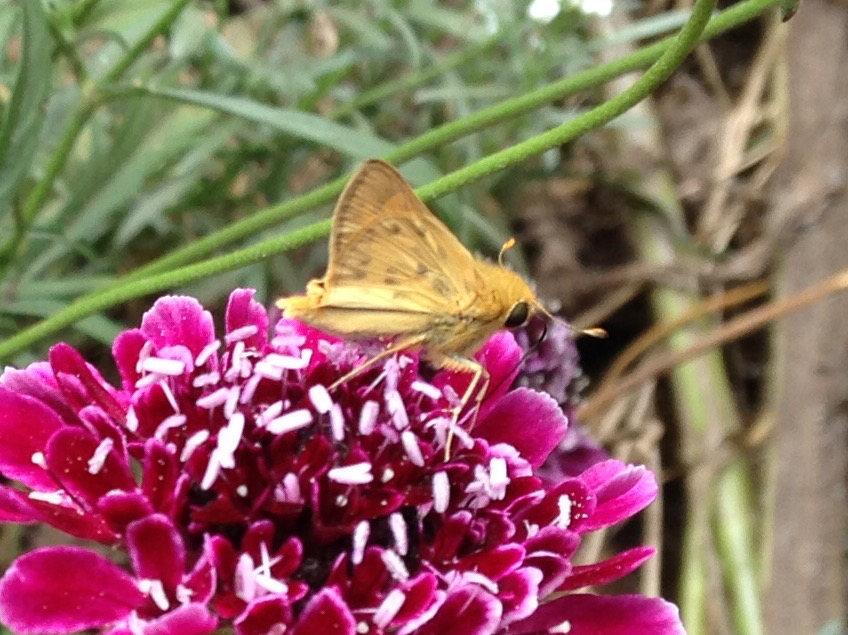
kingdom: Animalia
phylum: Arthropoda
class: Insecta
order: Lepidoptera
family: Hesperiidae
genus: Hylephila
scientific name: Hylephila phyleus
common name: Fiery skipper
